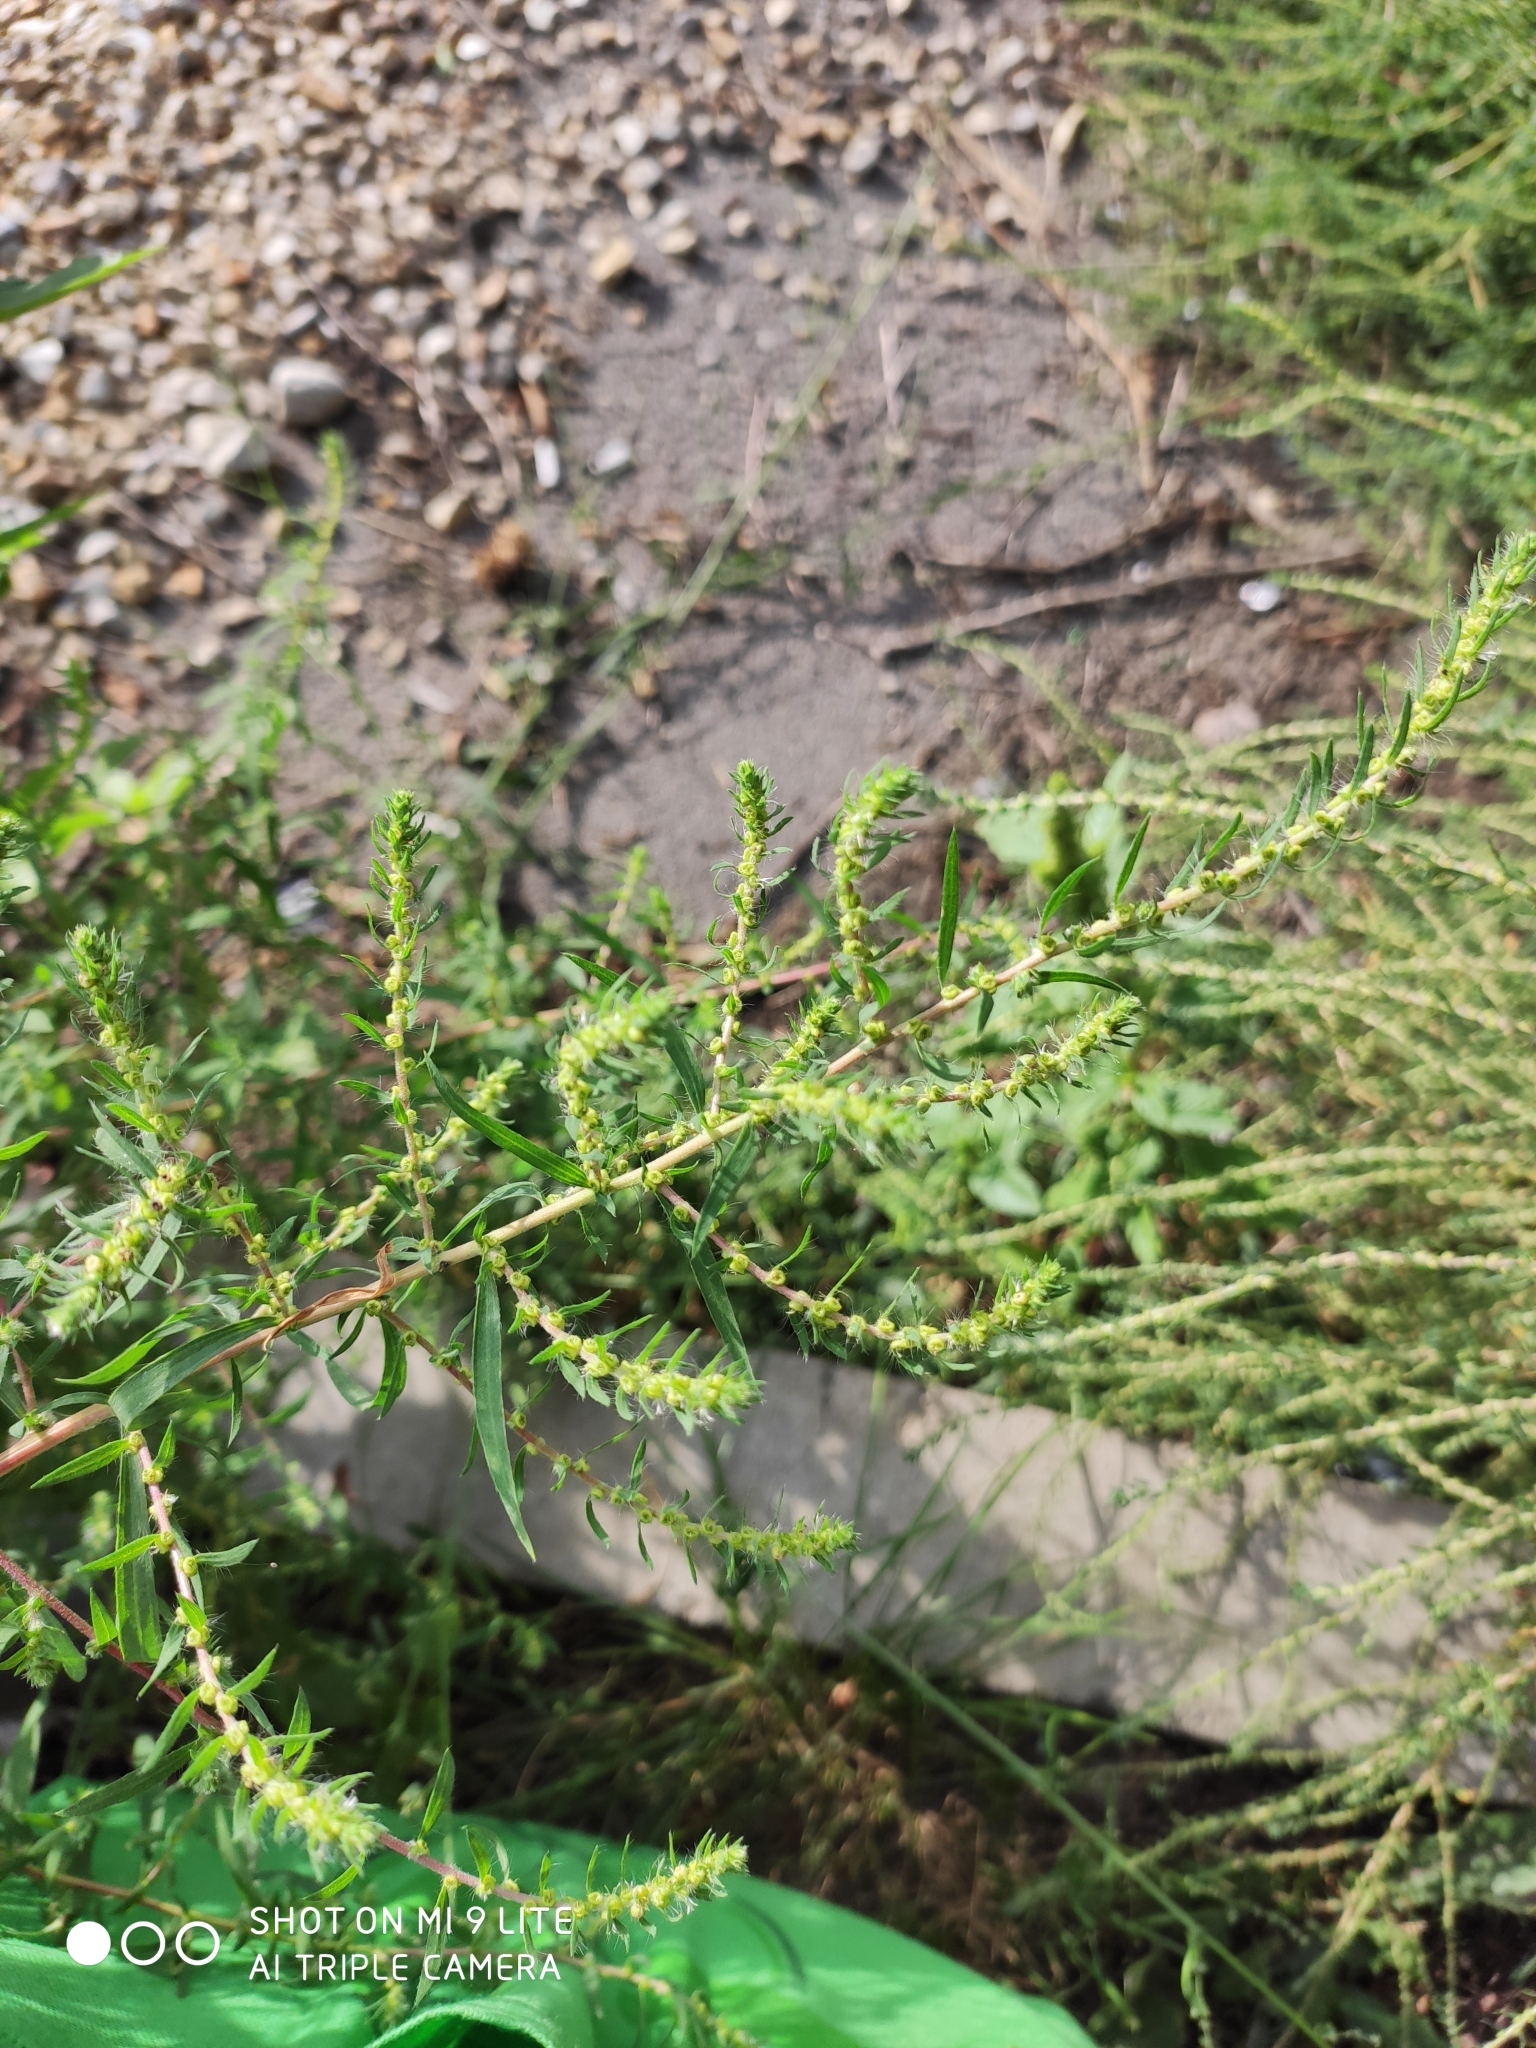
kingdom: Plantae
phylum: Tracheophyta
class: Magnoliopsida
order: Caryophyllales
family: Amaranthaceae
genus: Bassia
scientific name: Bassia scoparia
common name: Belvedere
